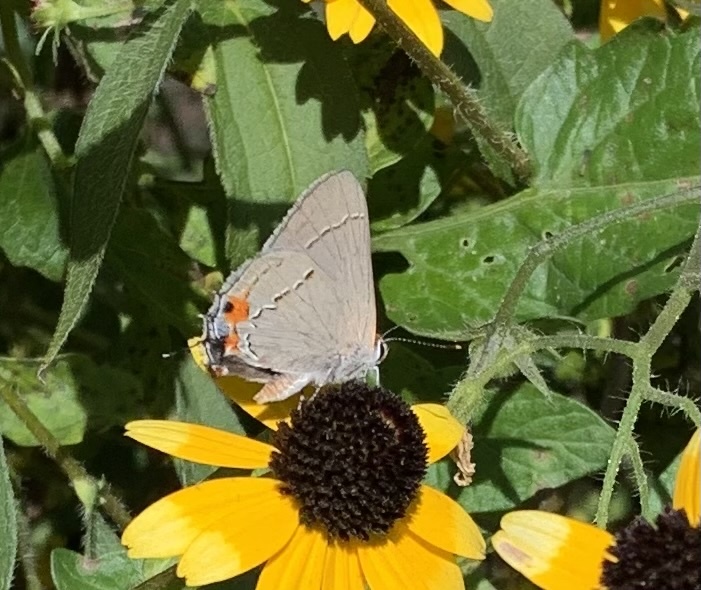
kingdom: Animalia
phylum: Arthropoda
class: Insecta
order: Lepidoptera
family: Lycaenidae
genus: Strymon
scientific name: Strymon melinus
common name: Gray hairstreak
